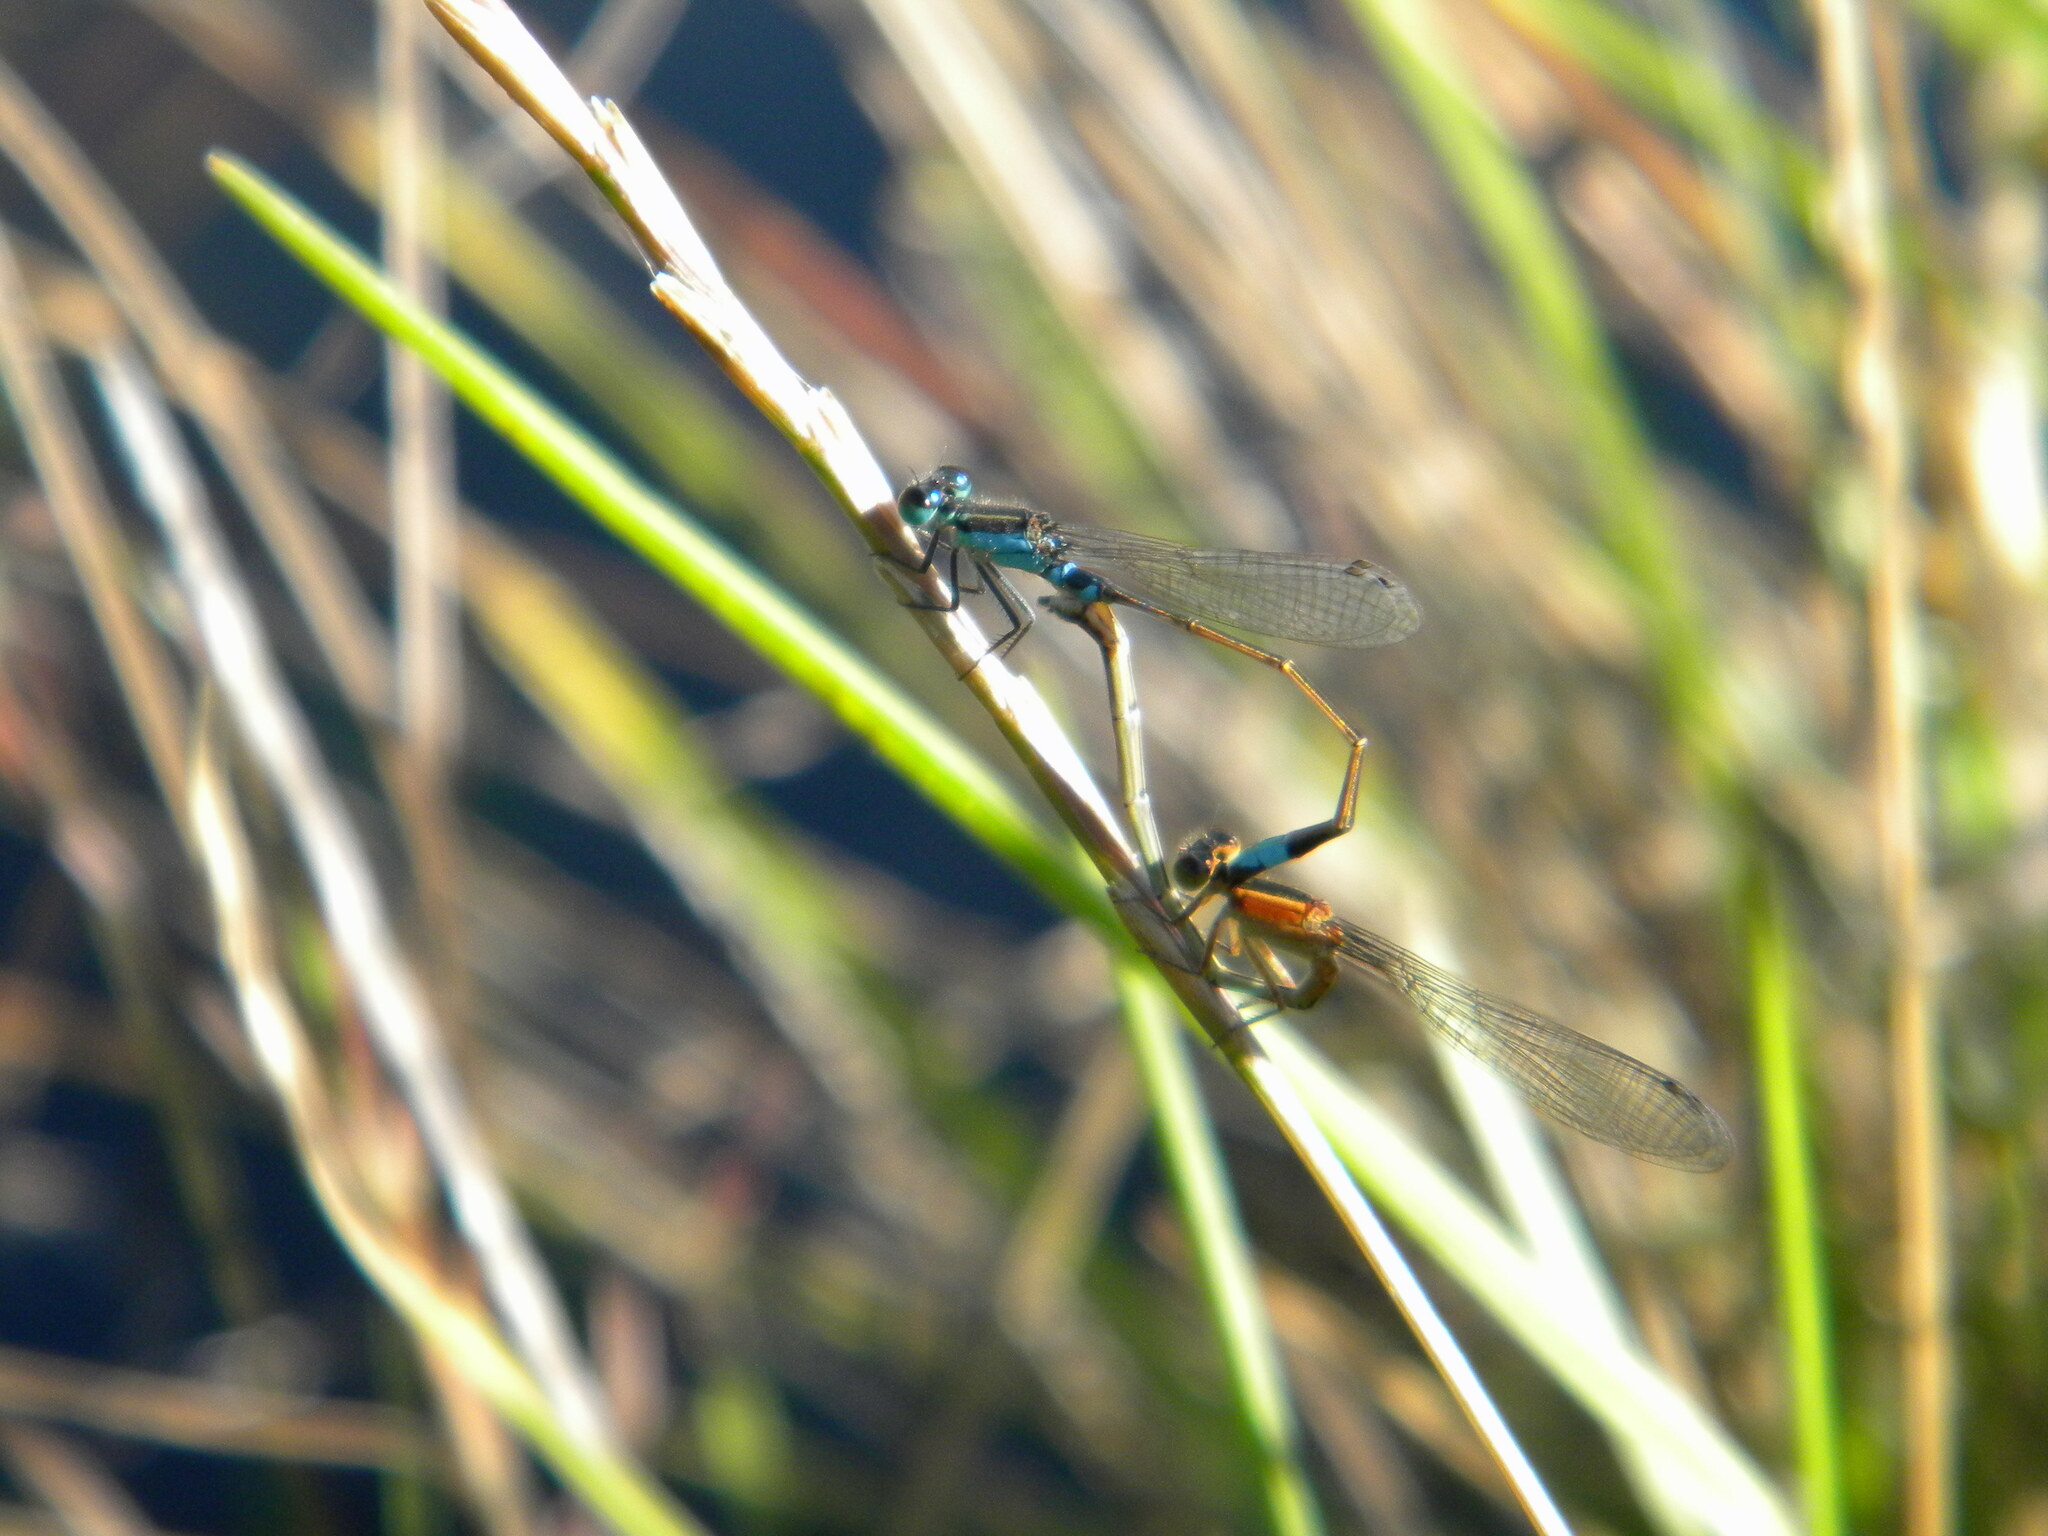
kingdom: Animalia
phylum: Arthropoda
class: Insecta
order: Odonata
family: Coenagrionidae
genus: Ischnura
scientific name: Ischnura senegalensis
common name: Tropical bluetail
